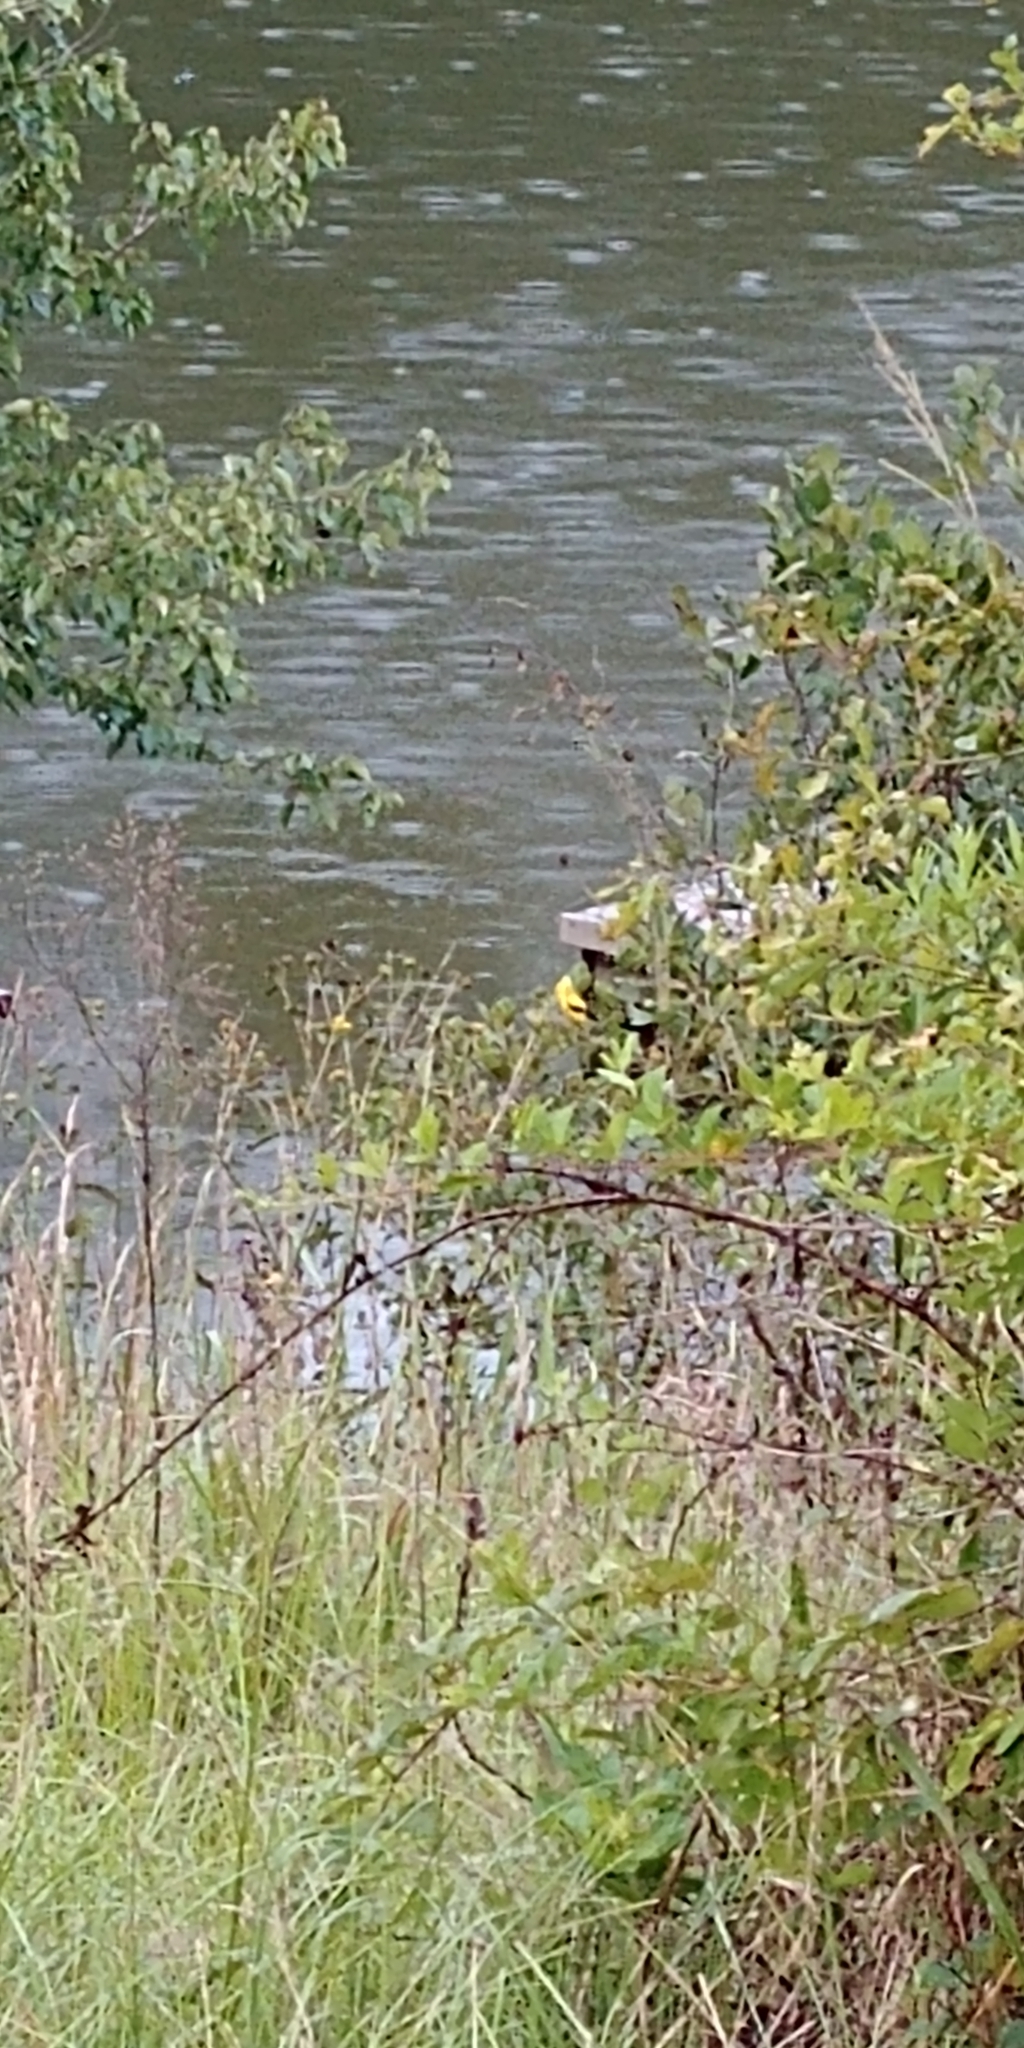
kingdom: Animalia
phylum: Chordata
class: Aves
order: Passeriformes
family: Fringillidae
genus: Spinus
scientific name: Spinus tristis
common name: American goldfinch
